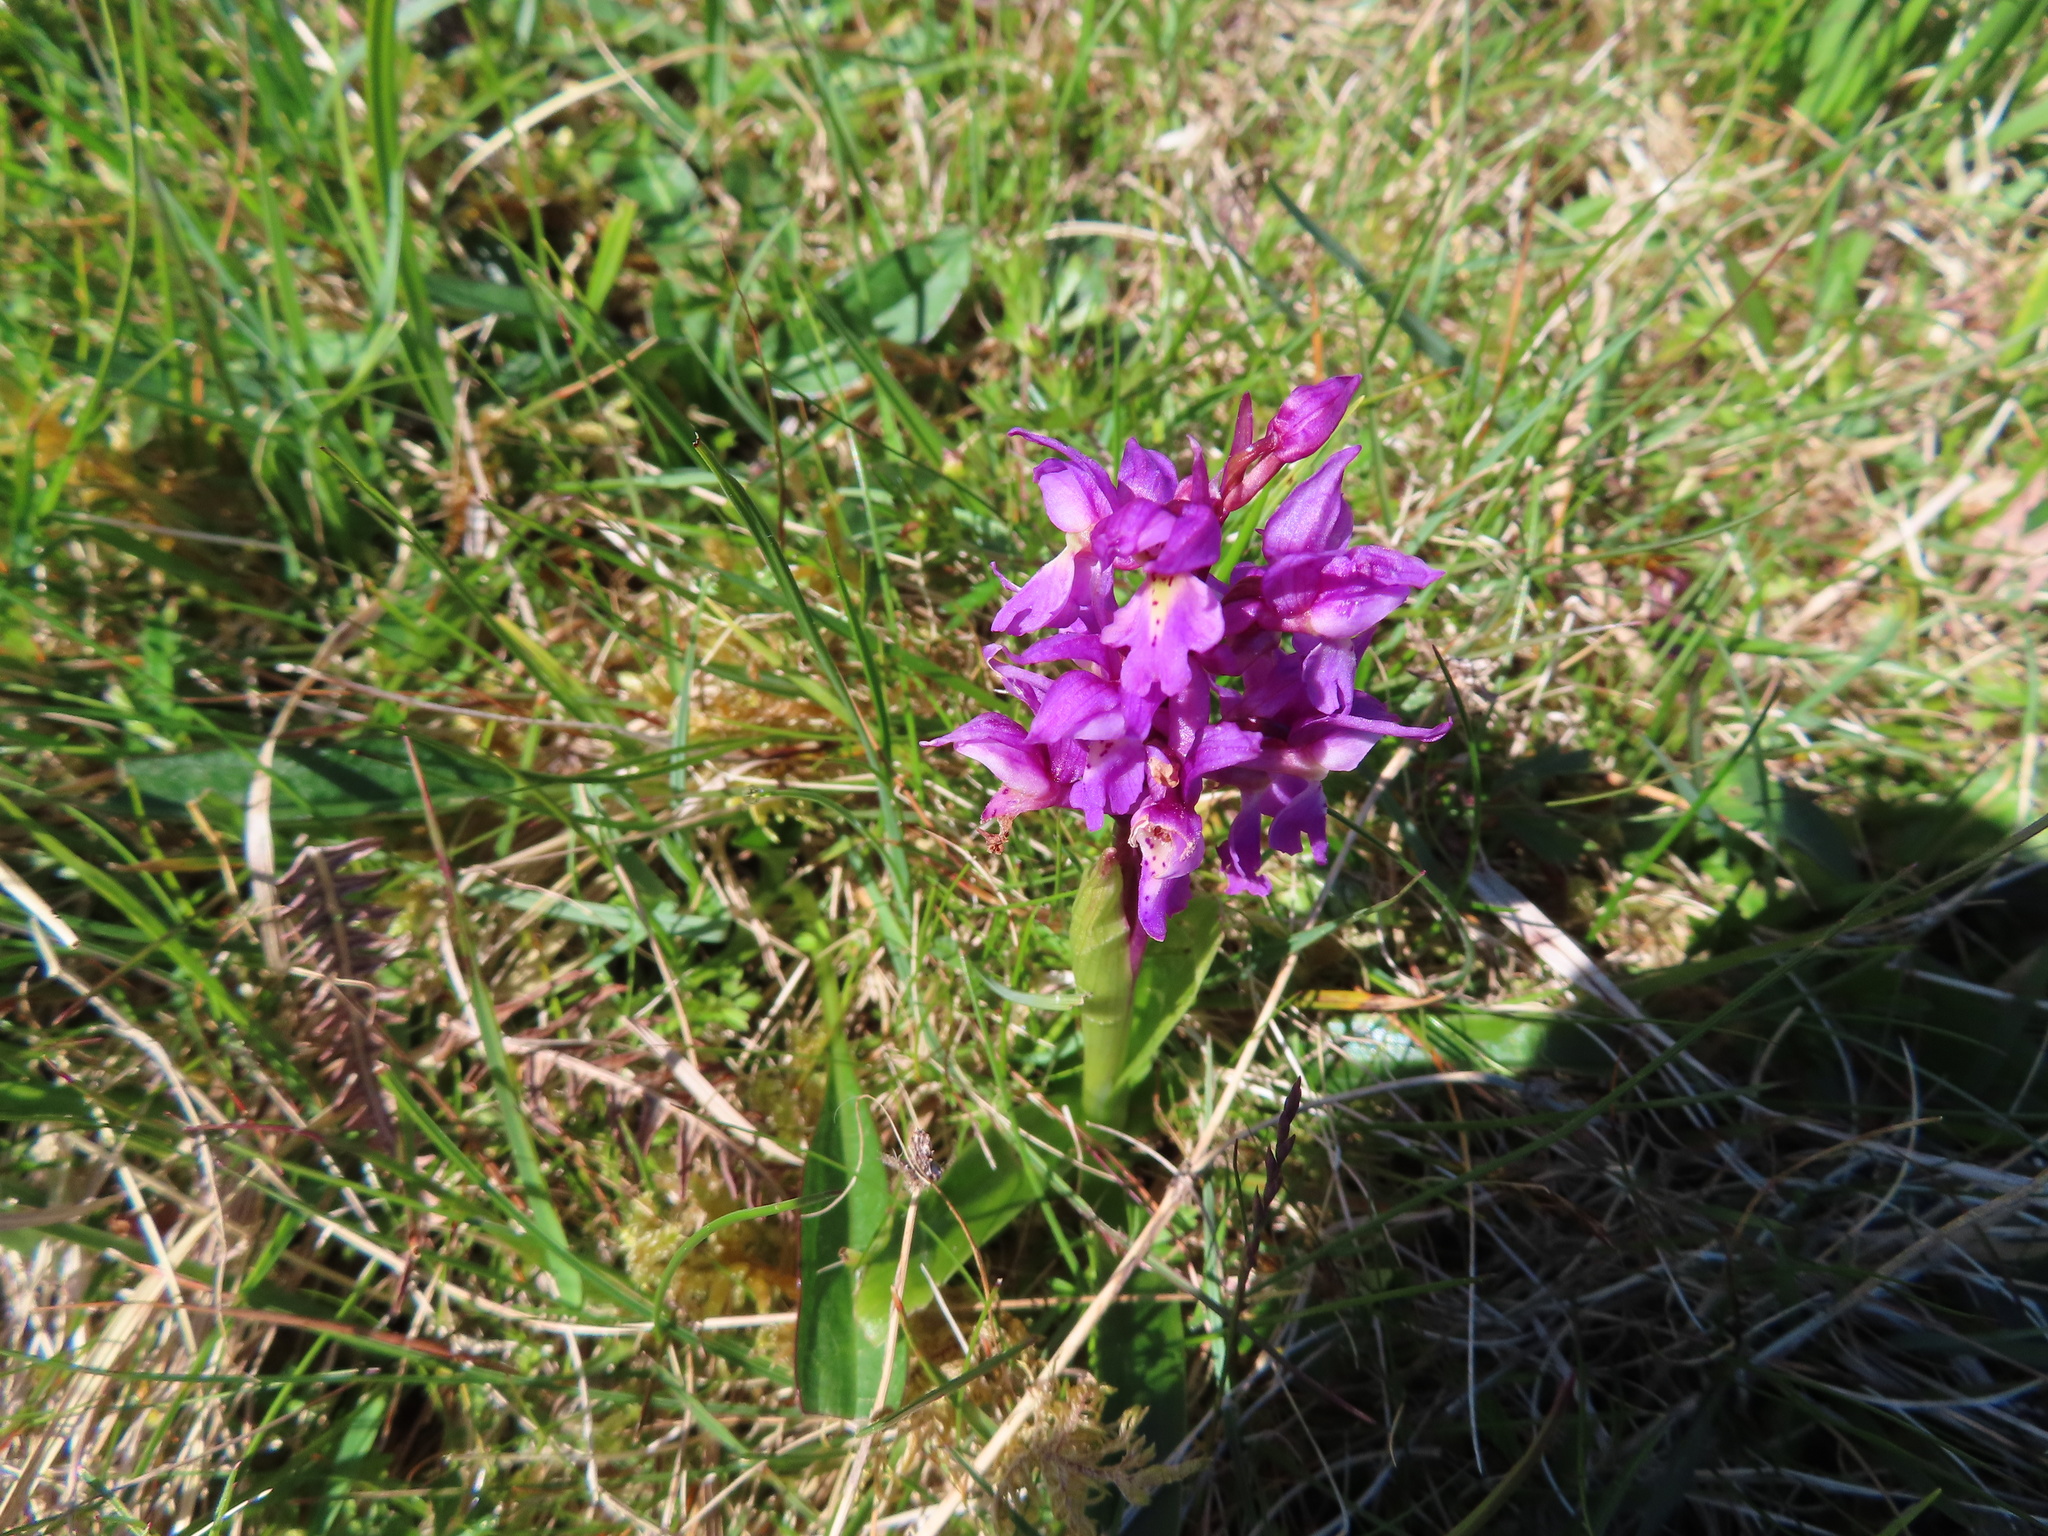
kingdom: Plantae
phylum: Tracheophyta
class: Liliopsida
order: Asparagales
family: Orchidaceae
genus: Orchis
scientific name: Orchis mascula
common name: Early-purple orchid
